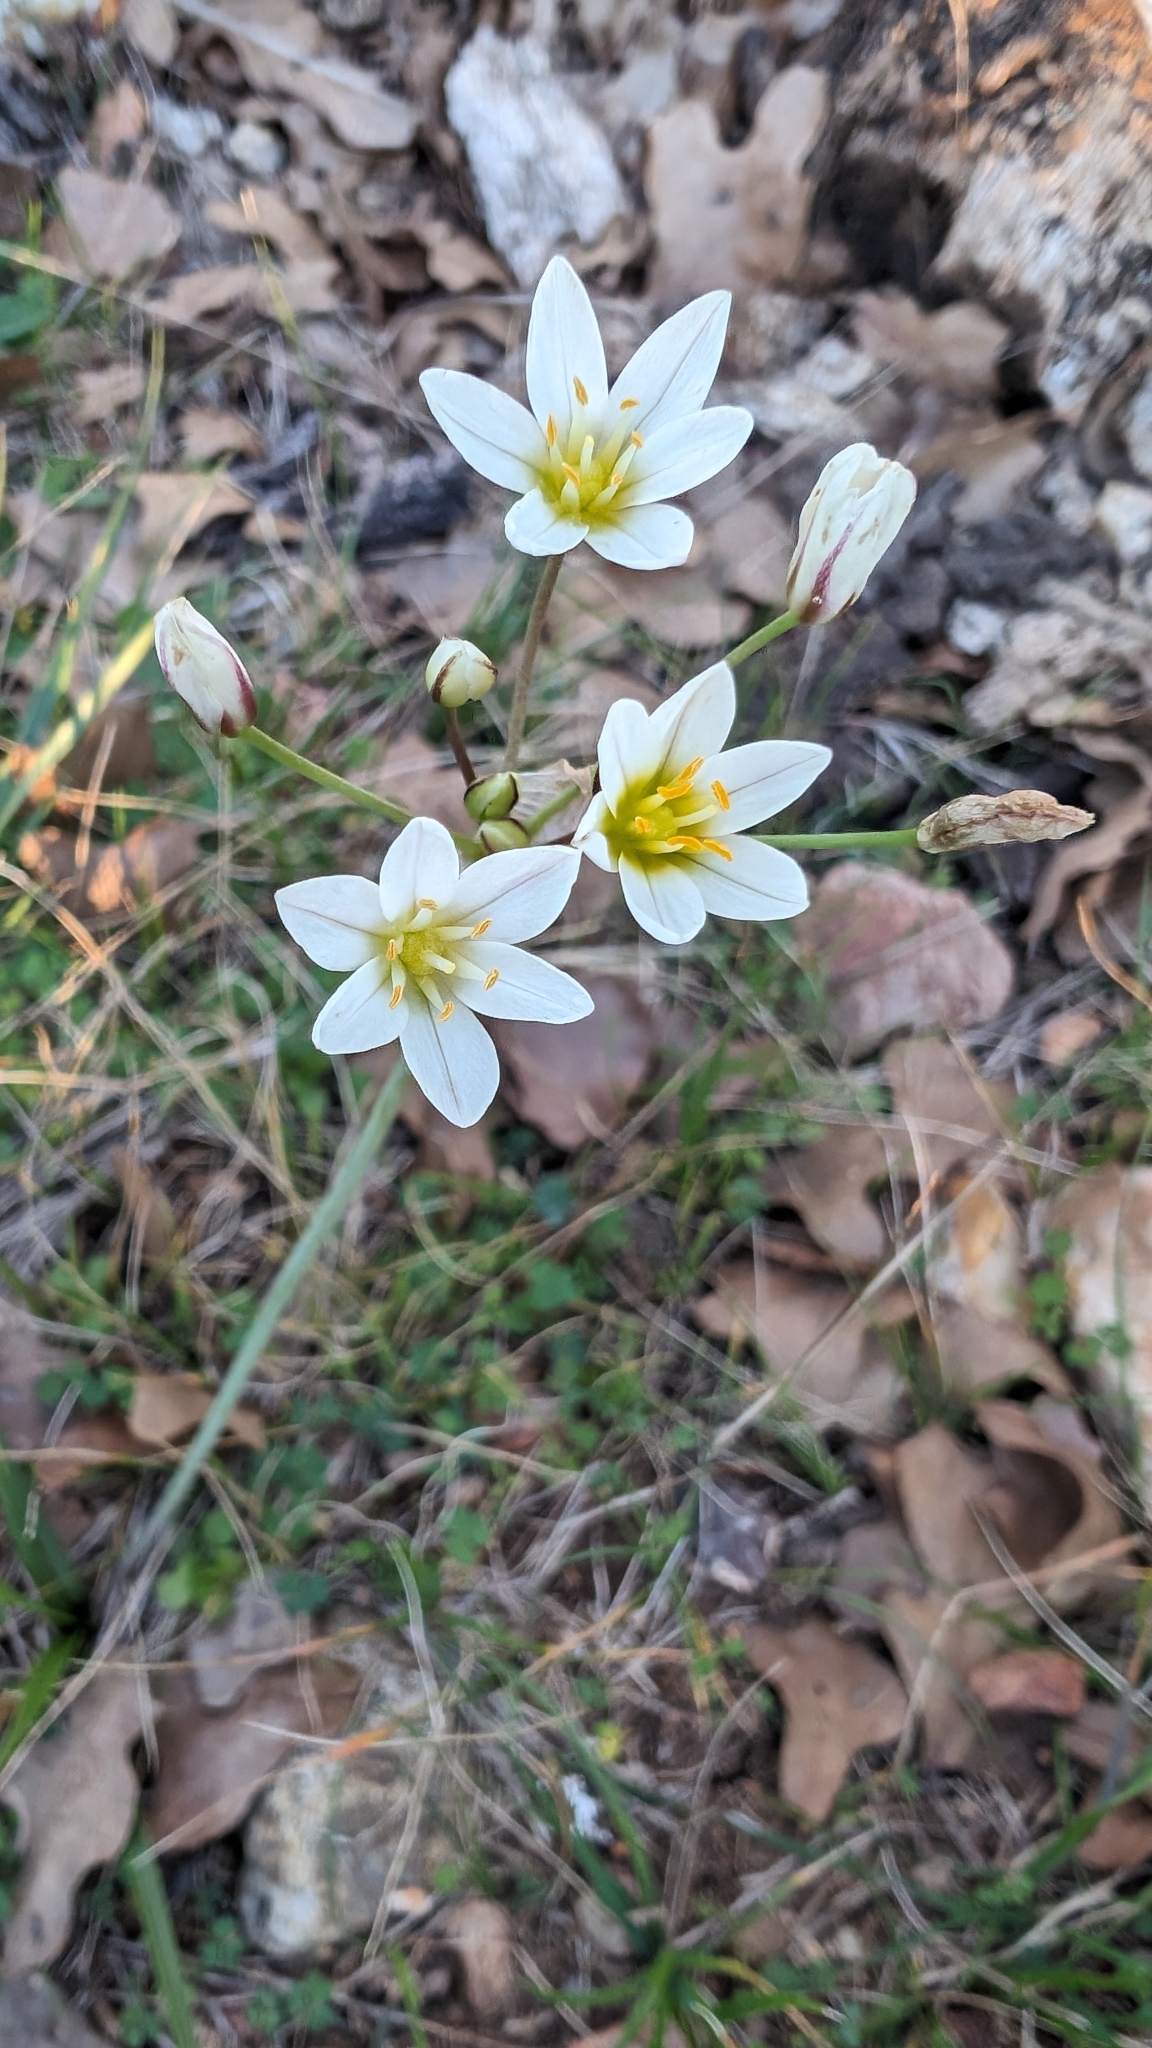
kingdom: Plantae
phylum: Tracheophyta
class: Liliopsida
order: Asparagales
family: Amaryllidaceae
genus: Nothoscordum
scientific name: Nothoscordum bivalve
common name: Crow-poison
